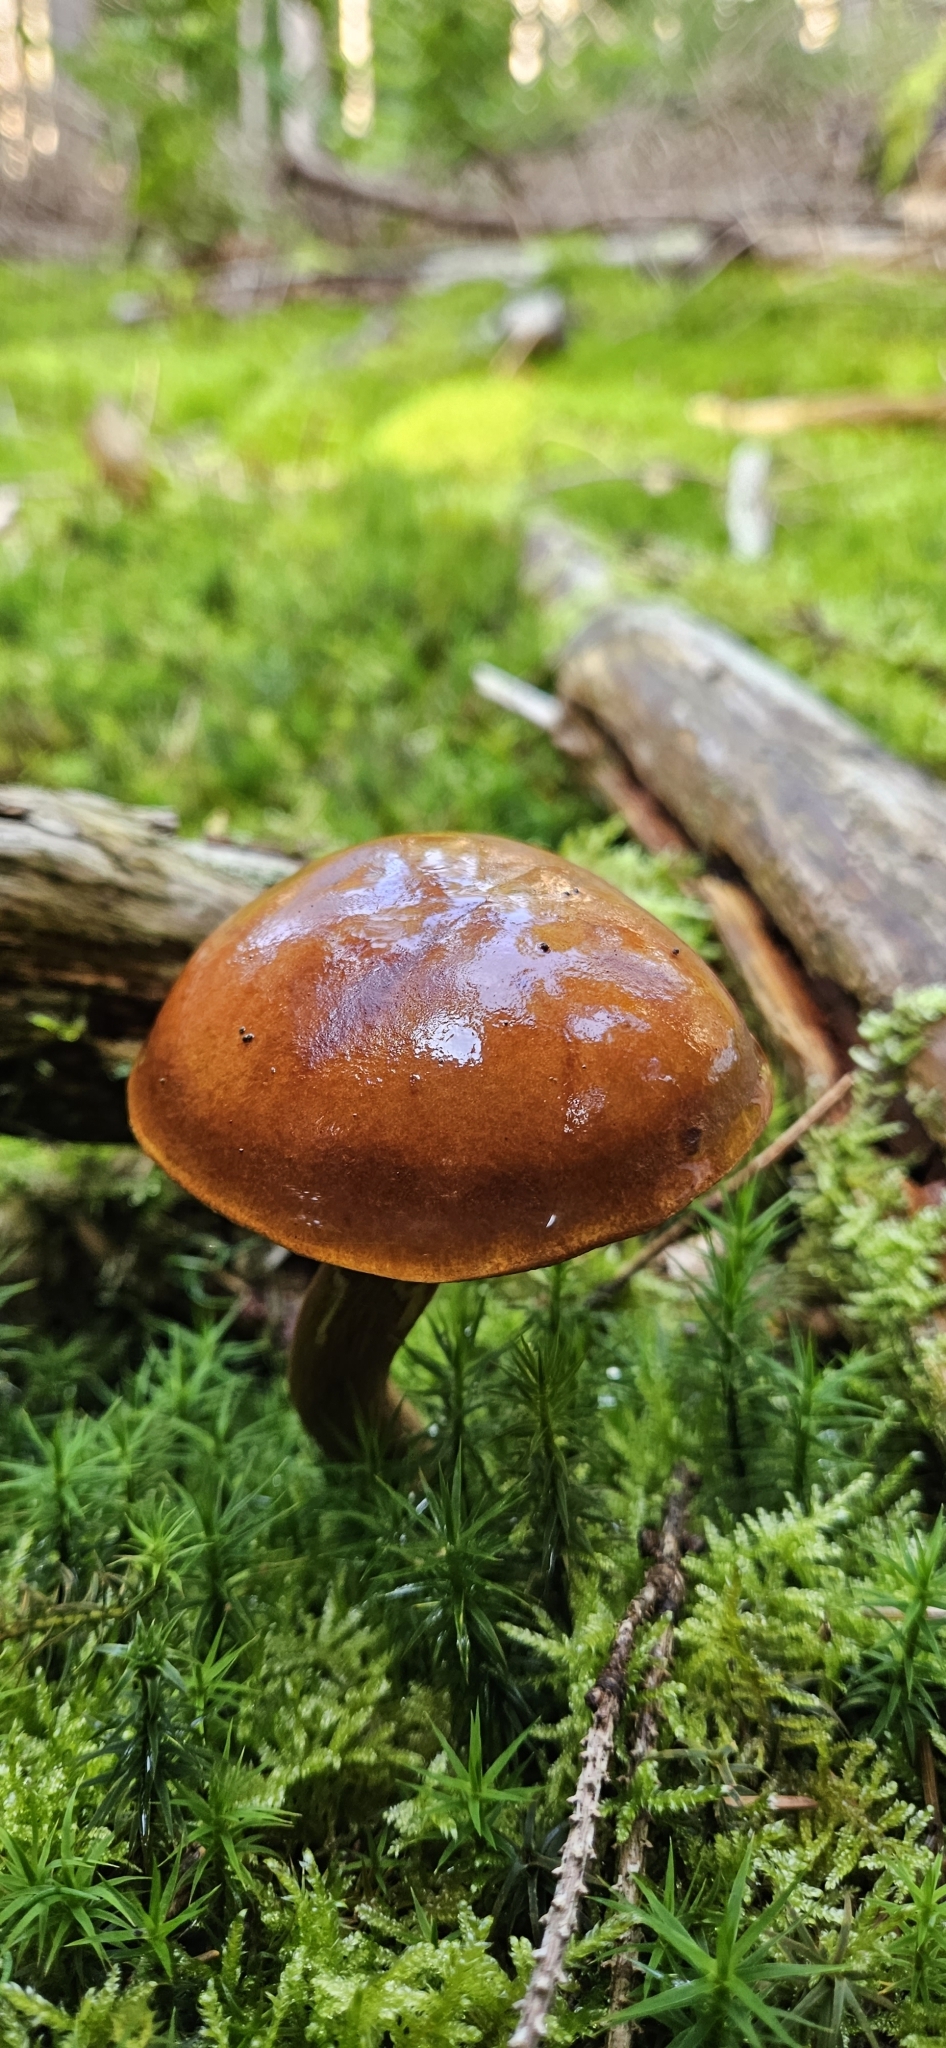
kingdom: Fungi
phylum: Basidiomycota
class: Agaricomycetes
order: Boletales
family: Boletaceae
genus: Imleria
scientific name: Imleria badia
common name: Bay bolete
